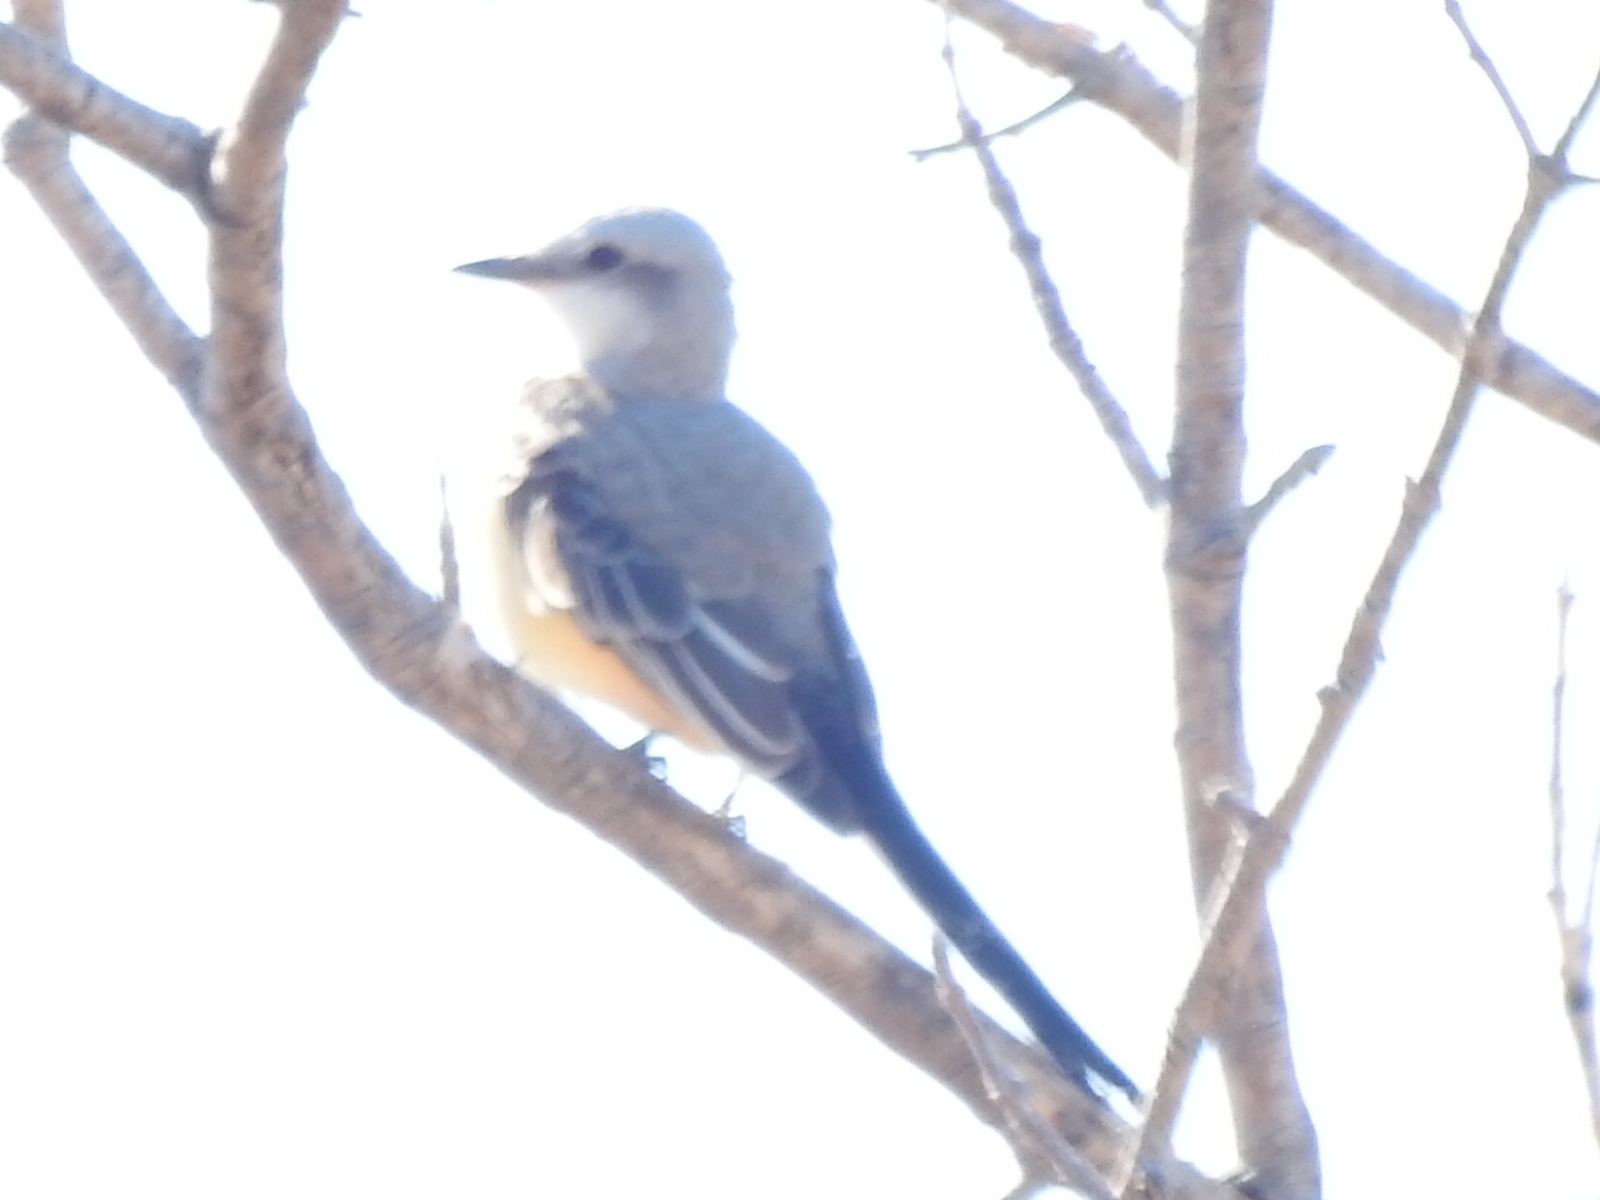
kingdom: Animalia
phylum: Chordata
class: Aves
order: Passeriformes
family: Tyrannidae
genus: Tyrannus
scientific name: Tyrannus forficatus
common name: Scissor-tailed flycatcher
